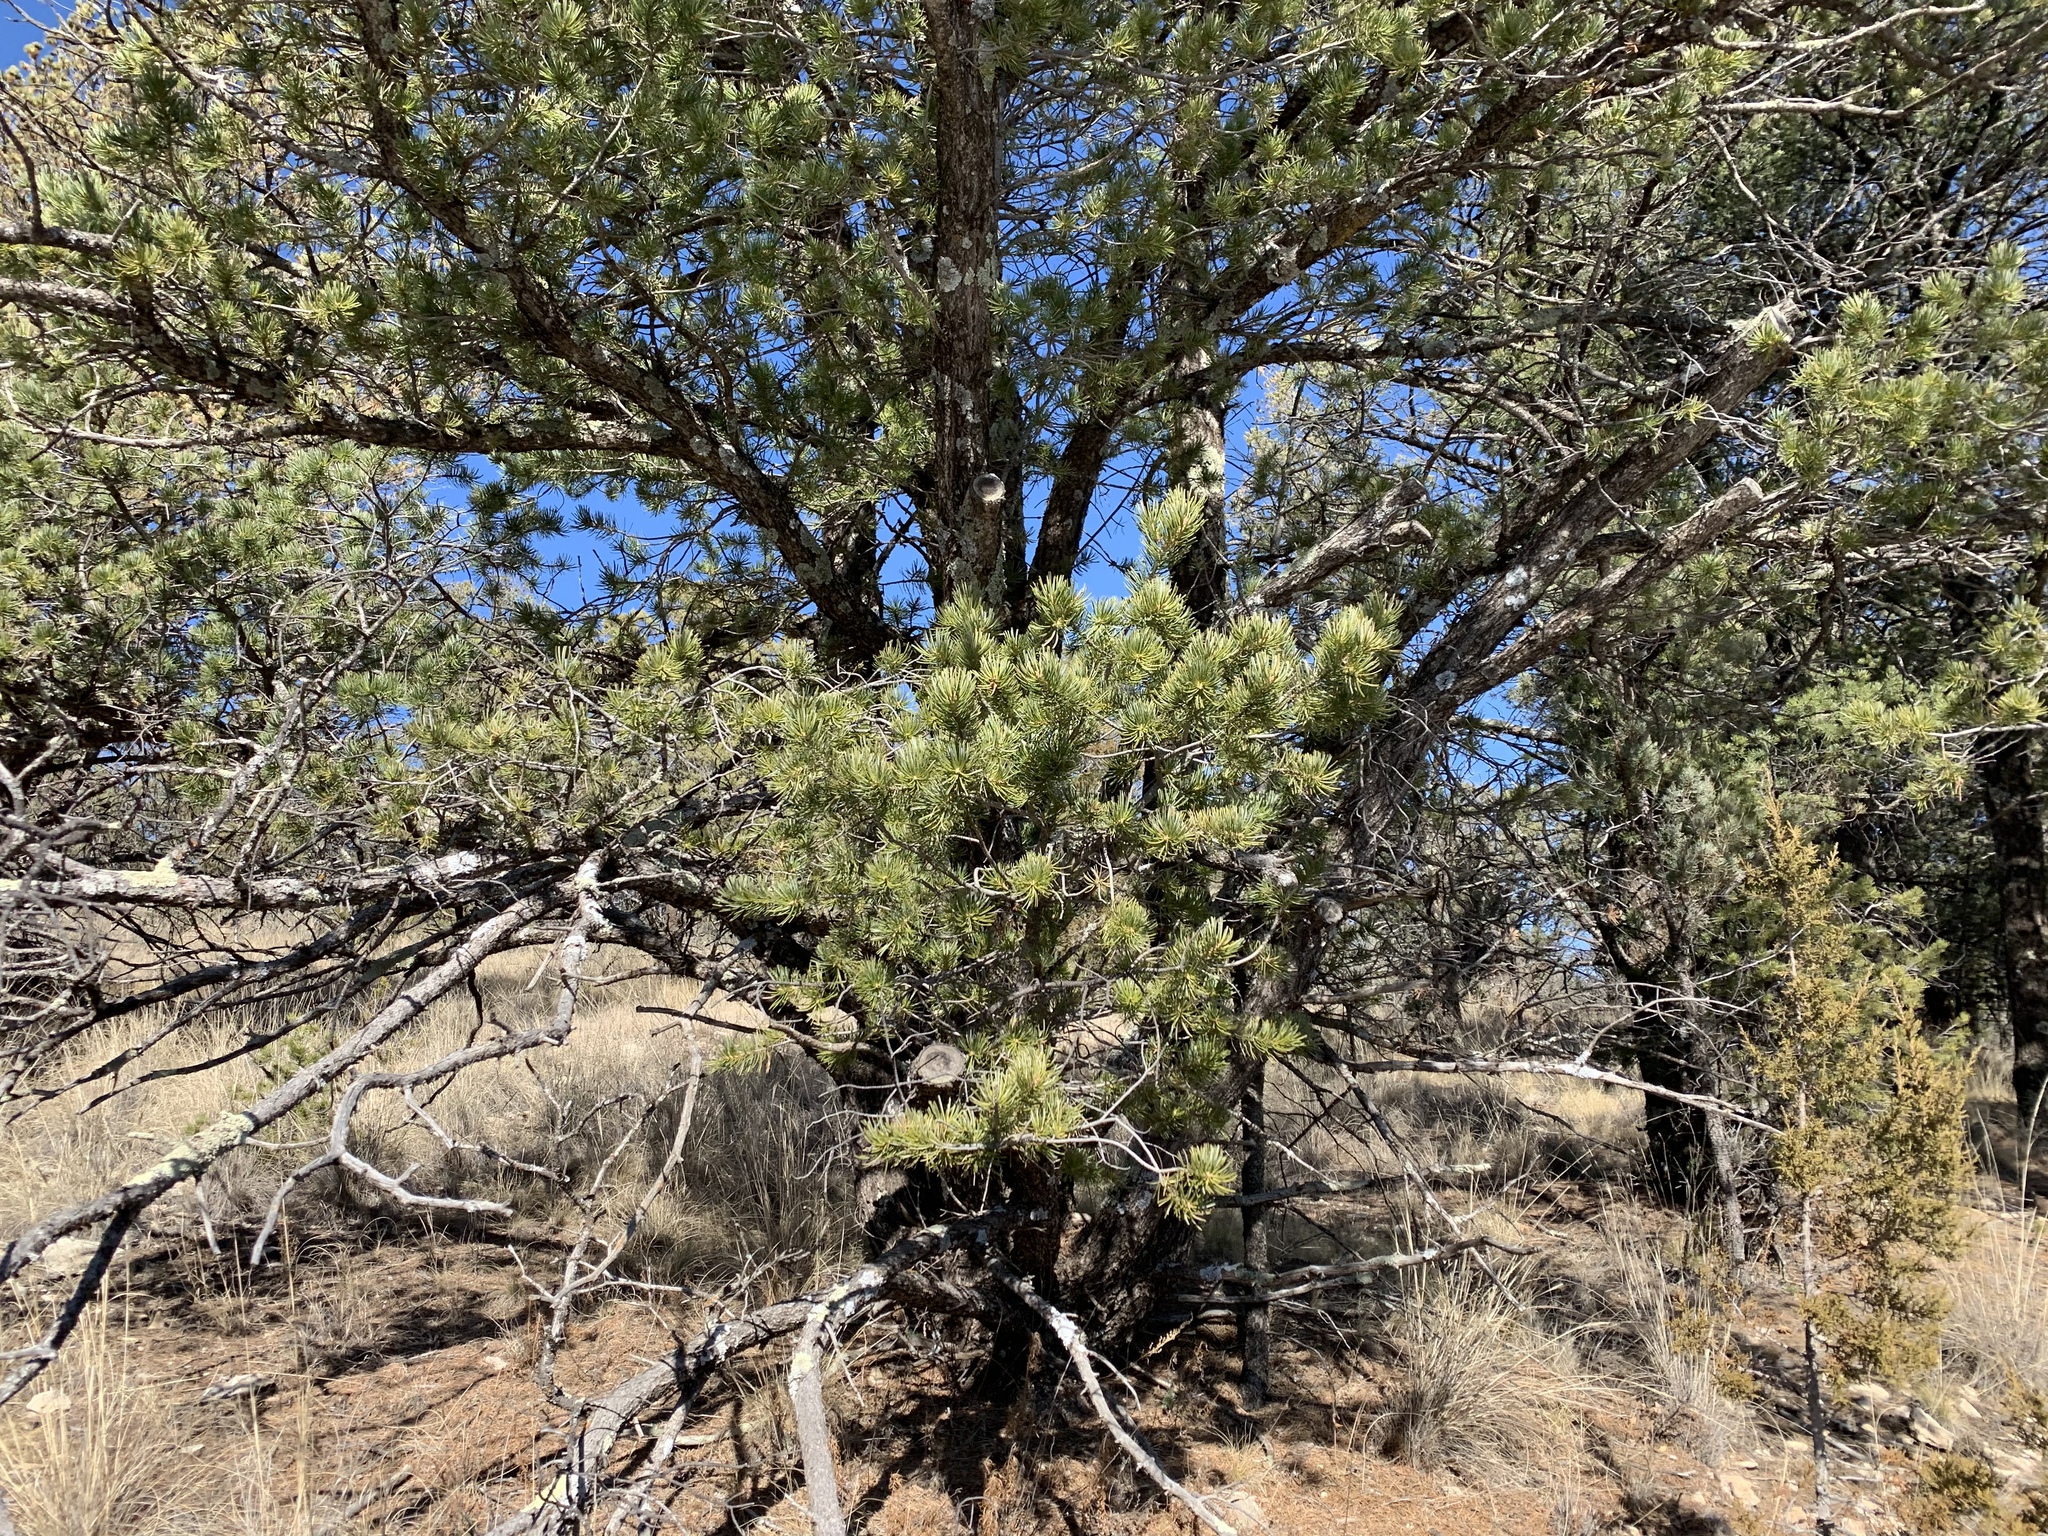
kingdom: Plantae
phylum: Tracheophyta
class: Pinopsida
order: Pinales
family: Pinaceae
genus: Pinus
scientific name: Pinus edulis
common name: Colorado pinyon
